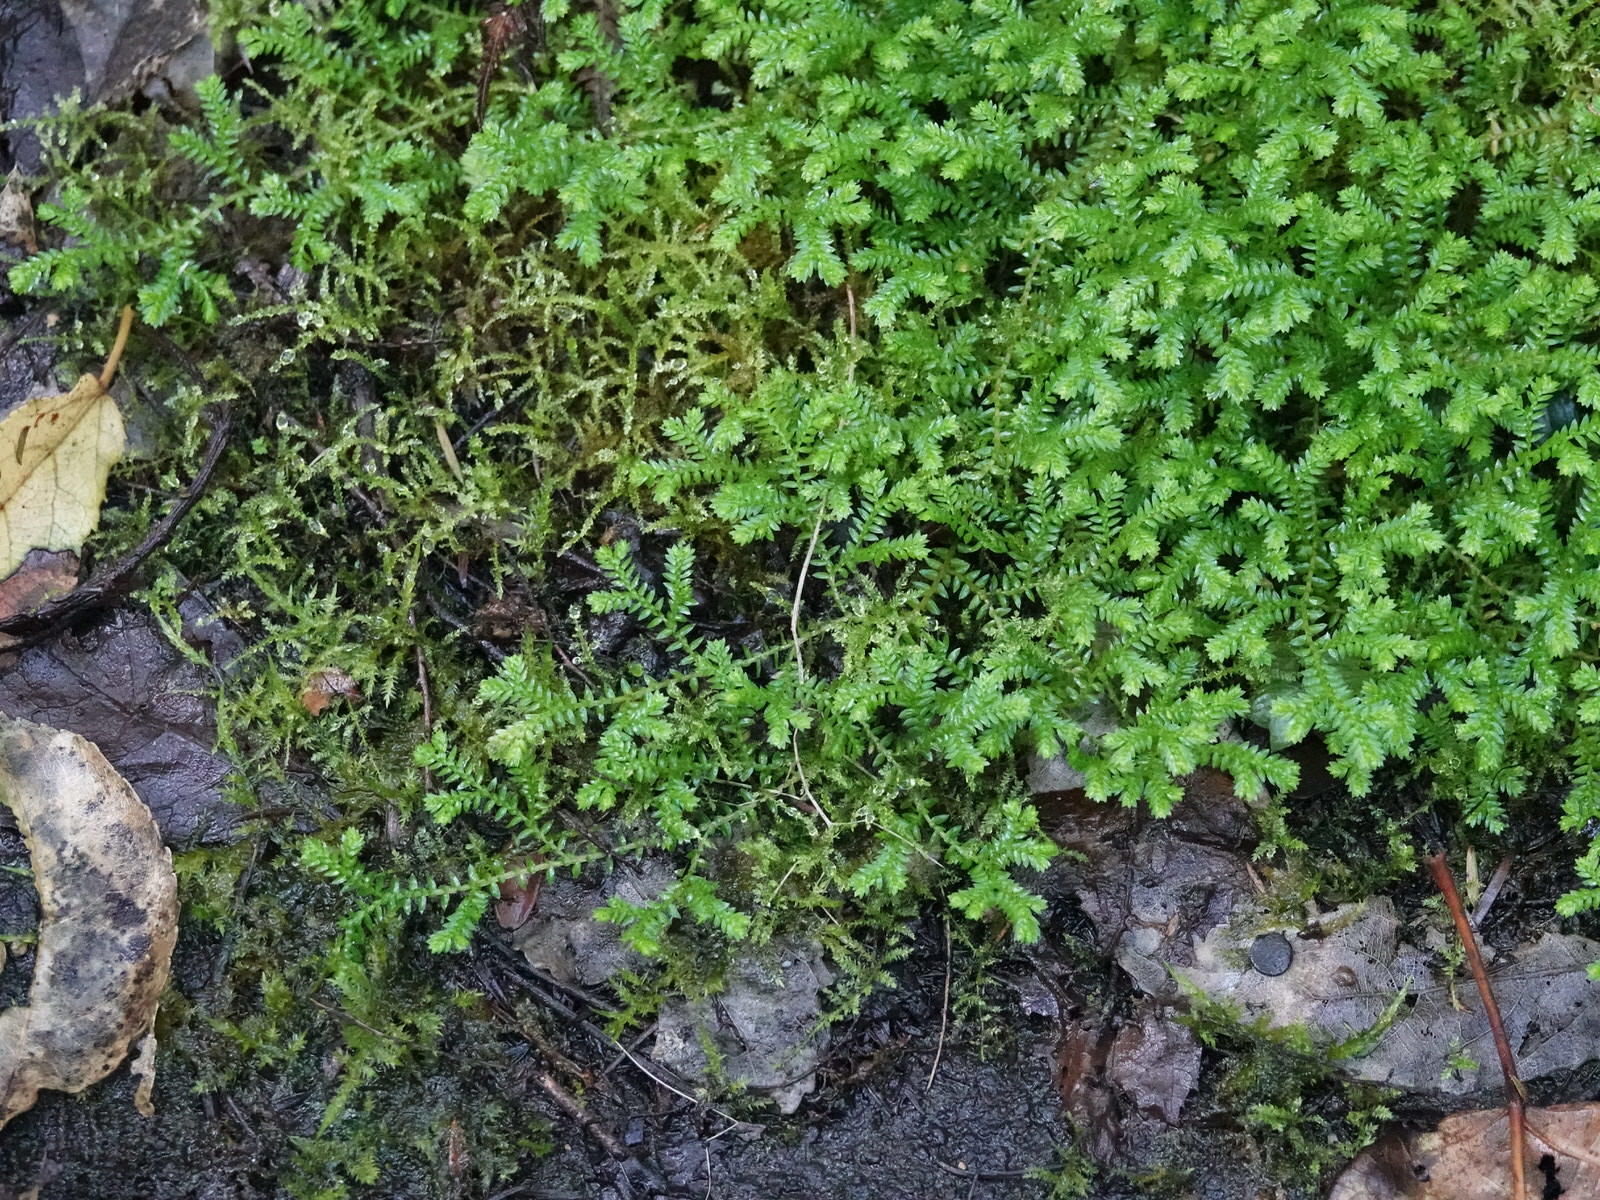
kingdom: Plantae
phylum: Tracheophyta
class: Lycopodiopsida
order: Selaginellales
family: Selaginellaceae
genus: Selaginella
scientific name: Selaginella kraussiana
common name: Krauss' spikemoss
